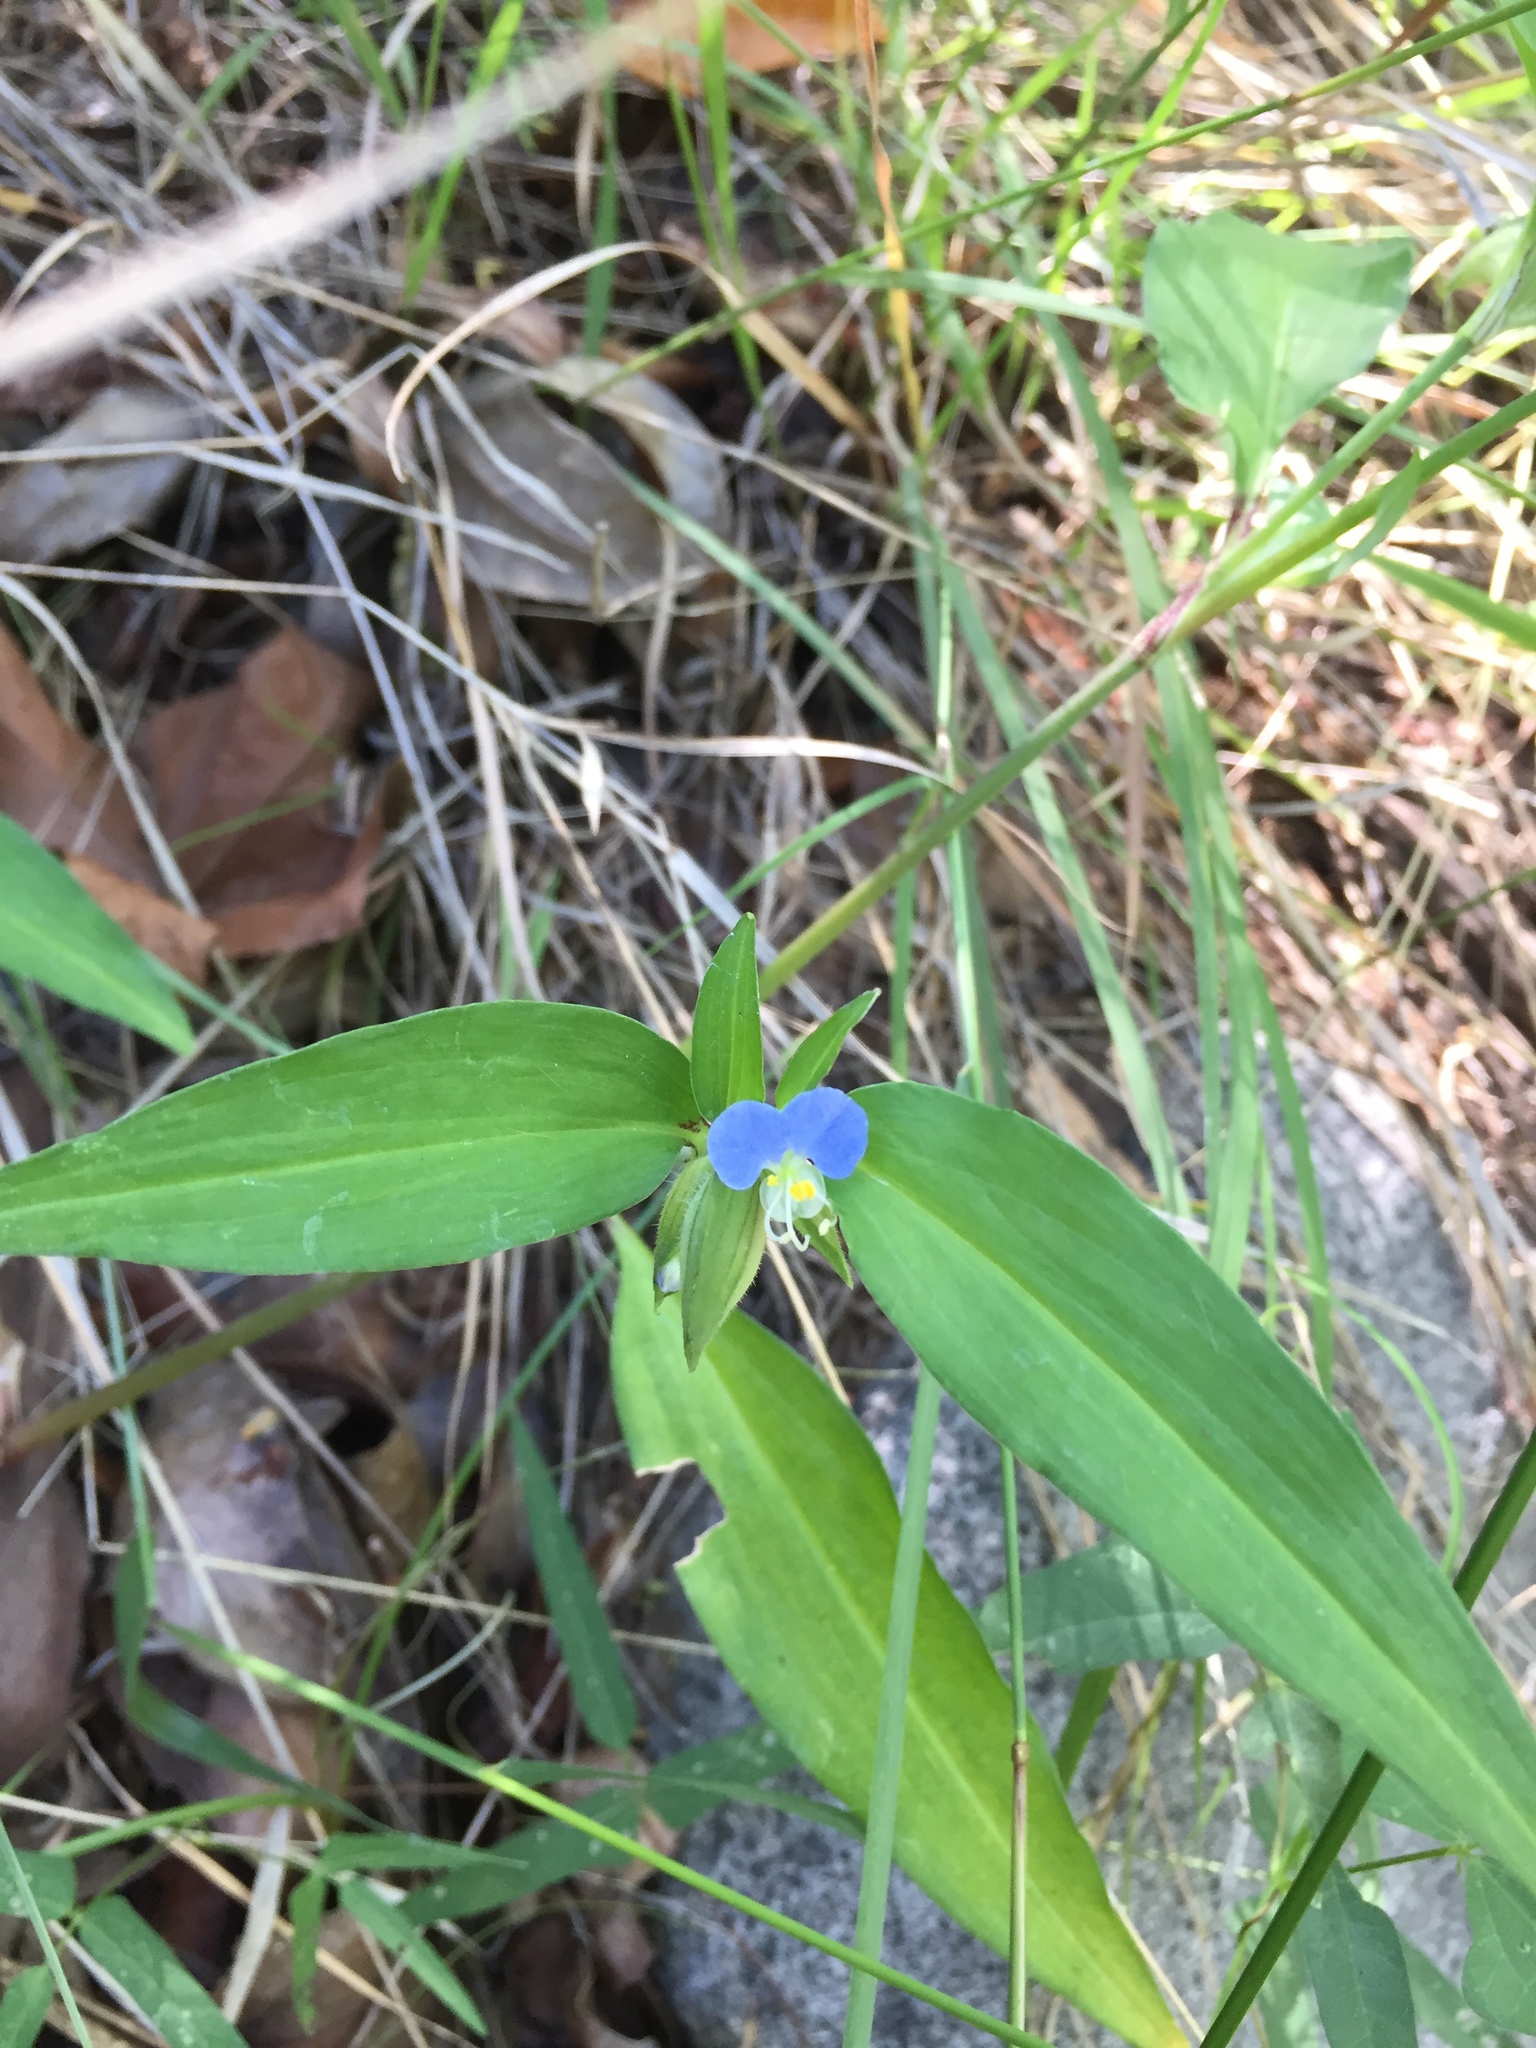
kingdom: Plantae
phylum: Tracheophyta
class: Liliopsida
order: Commelinales
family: Commelinaceae
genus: Commelina
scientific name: Commelina erecta
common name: Blousel blommetjie
